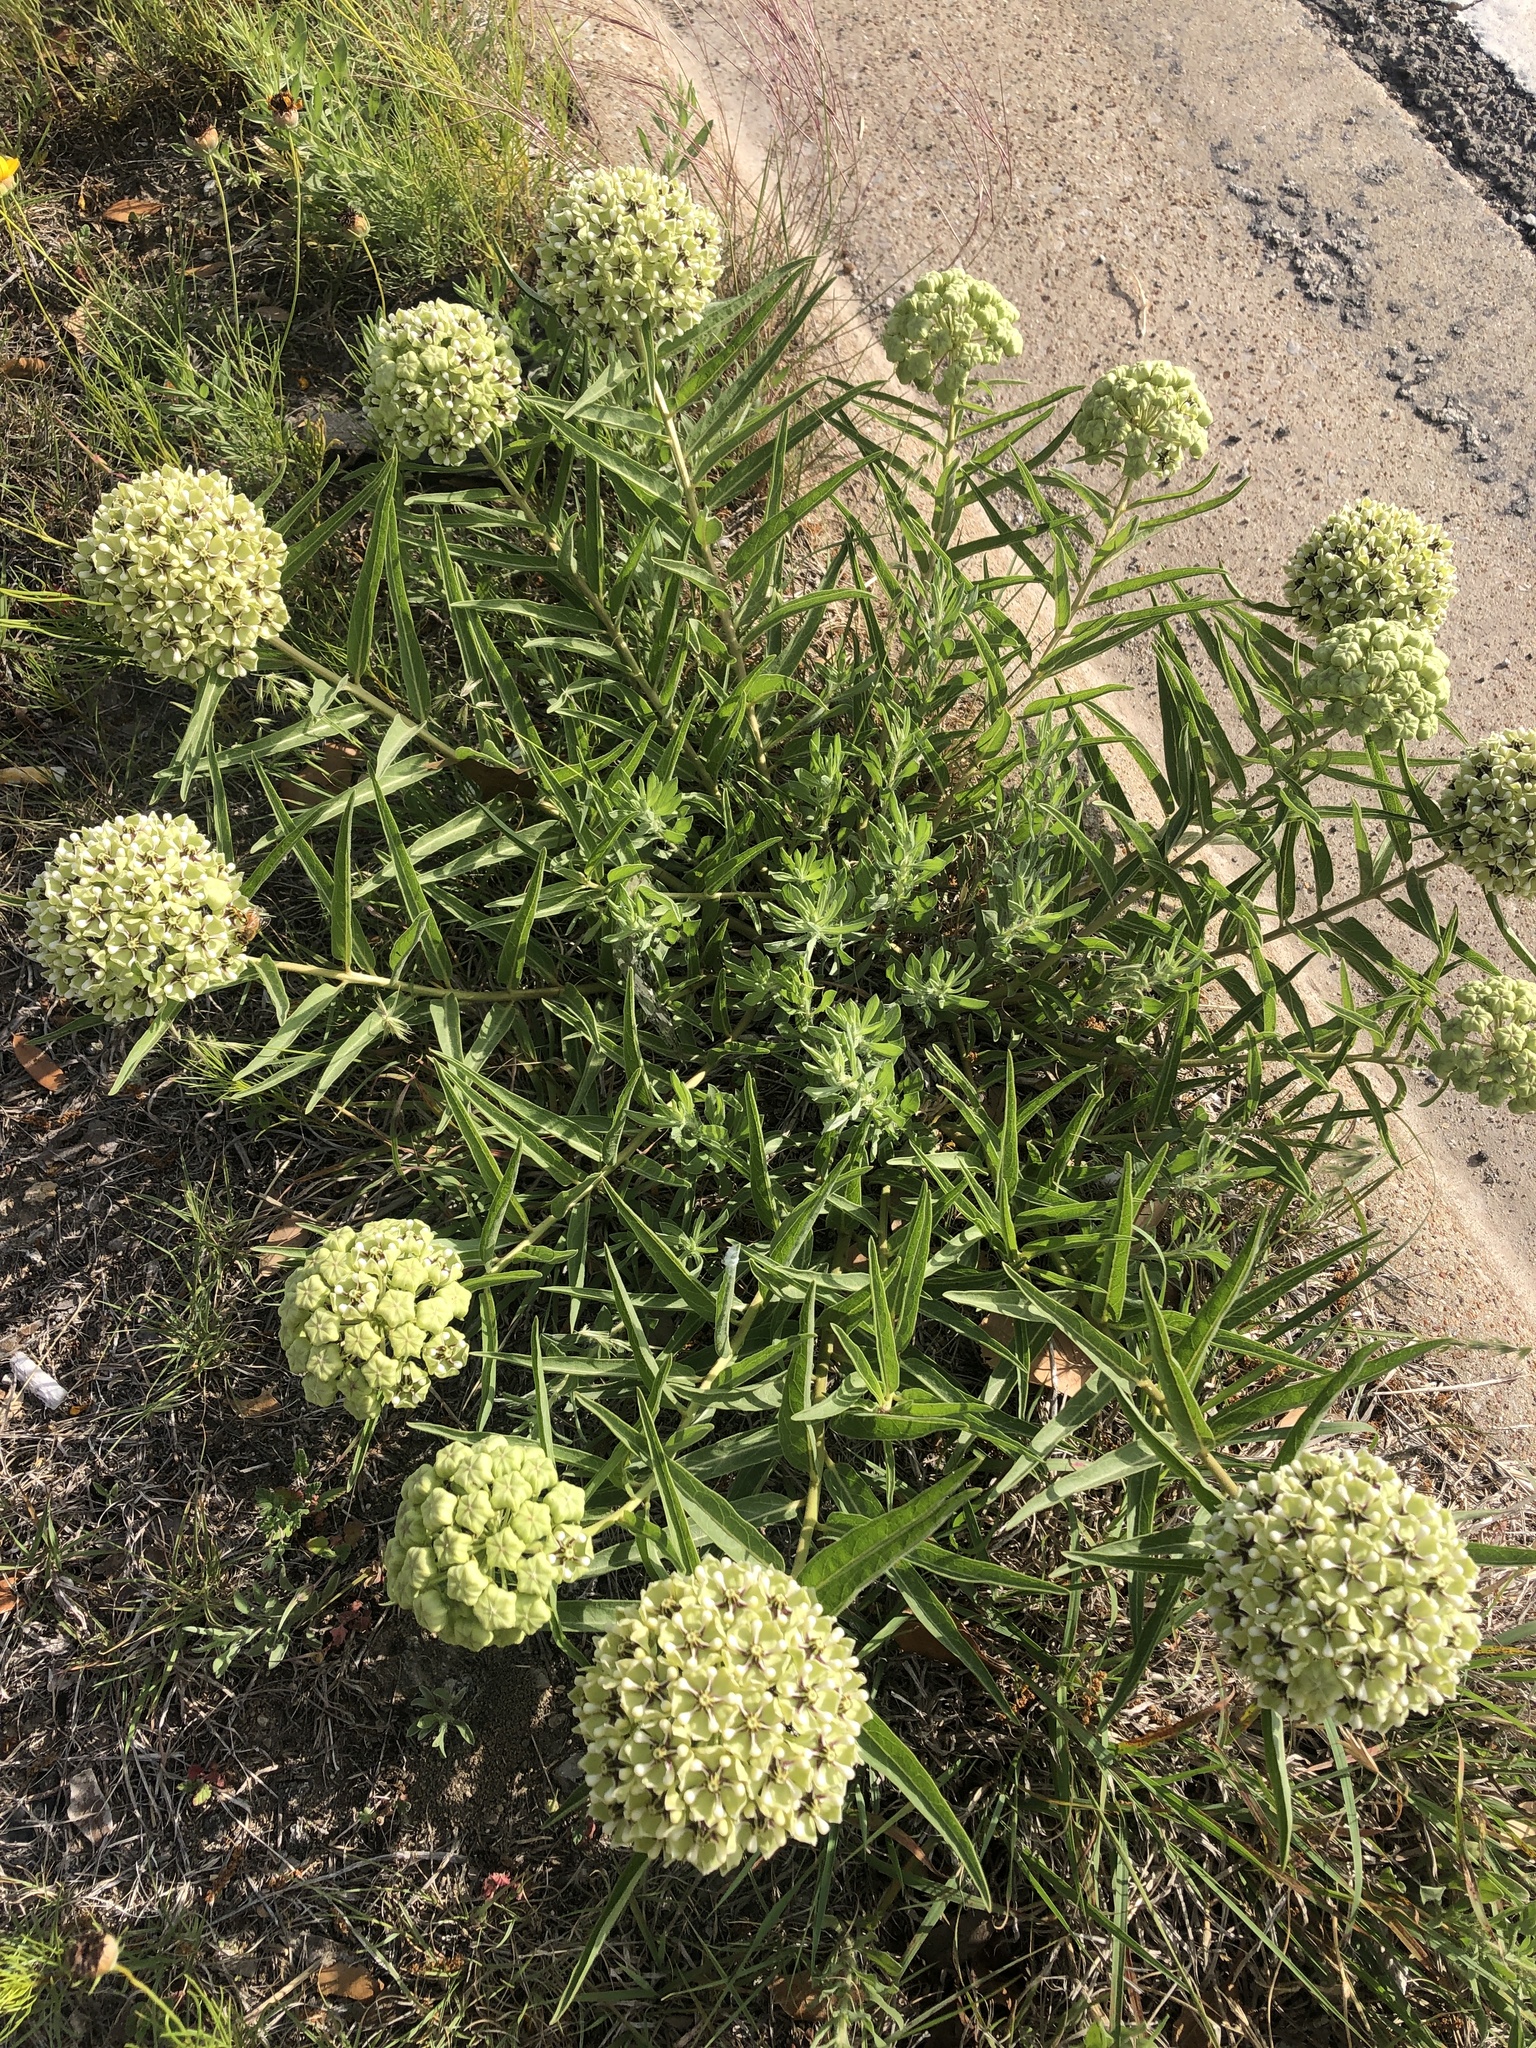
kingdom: Plantae
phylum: Tracheophyta
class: Magnoliopsida
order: Gentianales
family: Apocynaceae
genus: Asclepias
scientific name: Asclepias asperula
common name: Antelope horns
